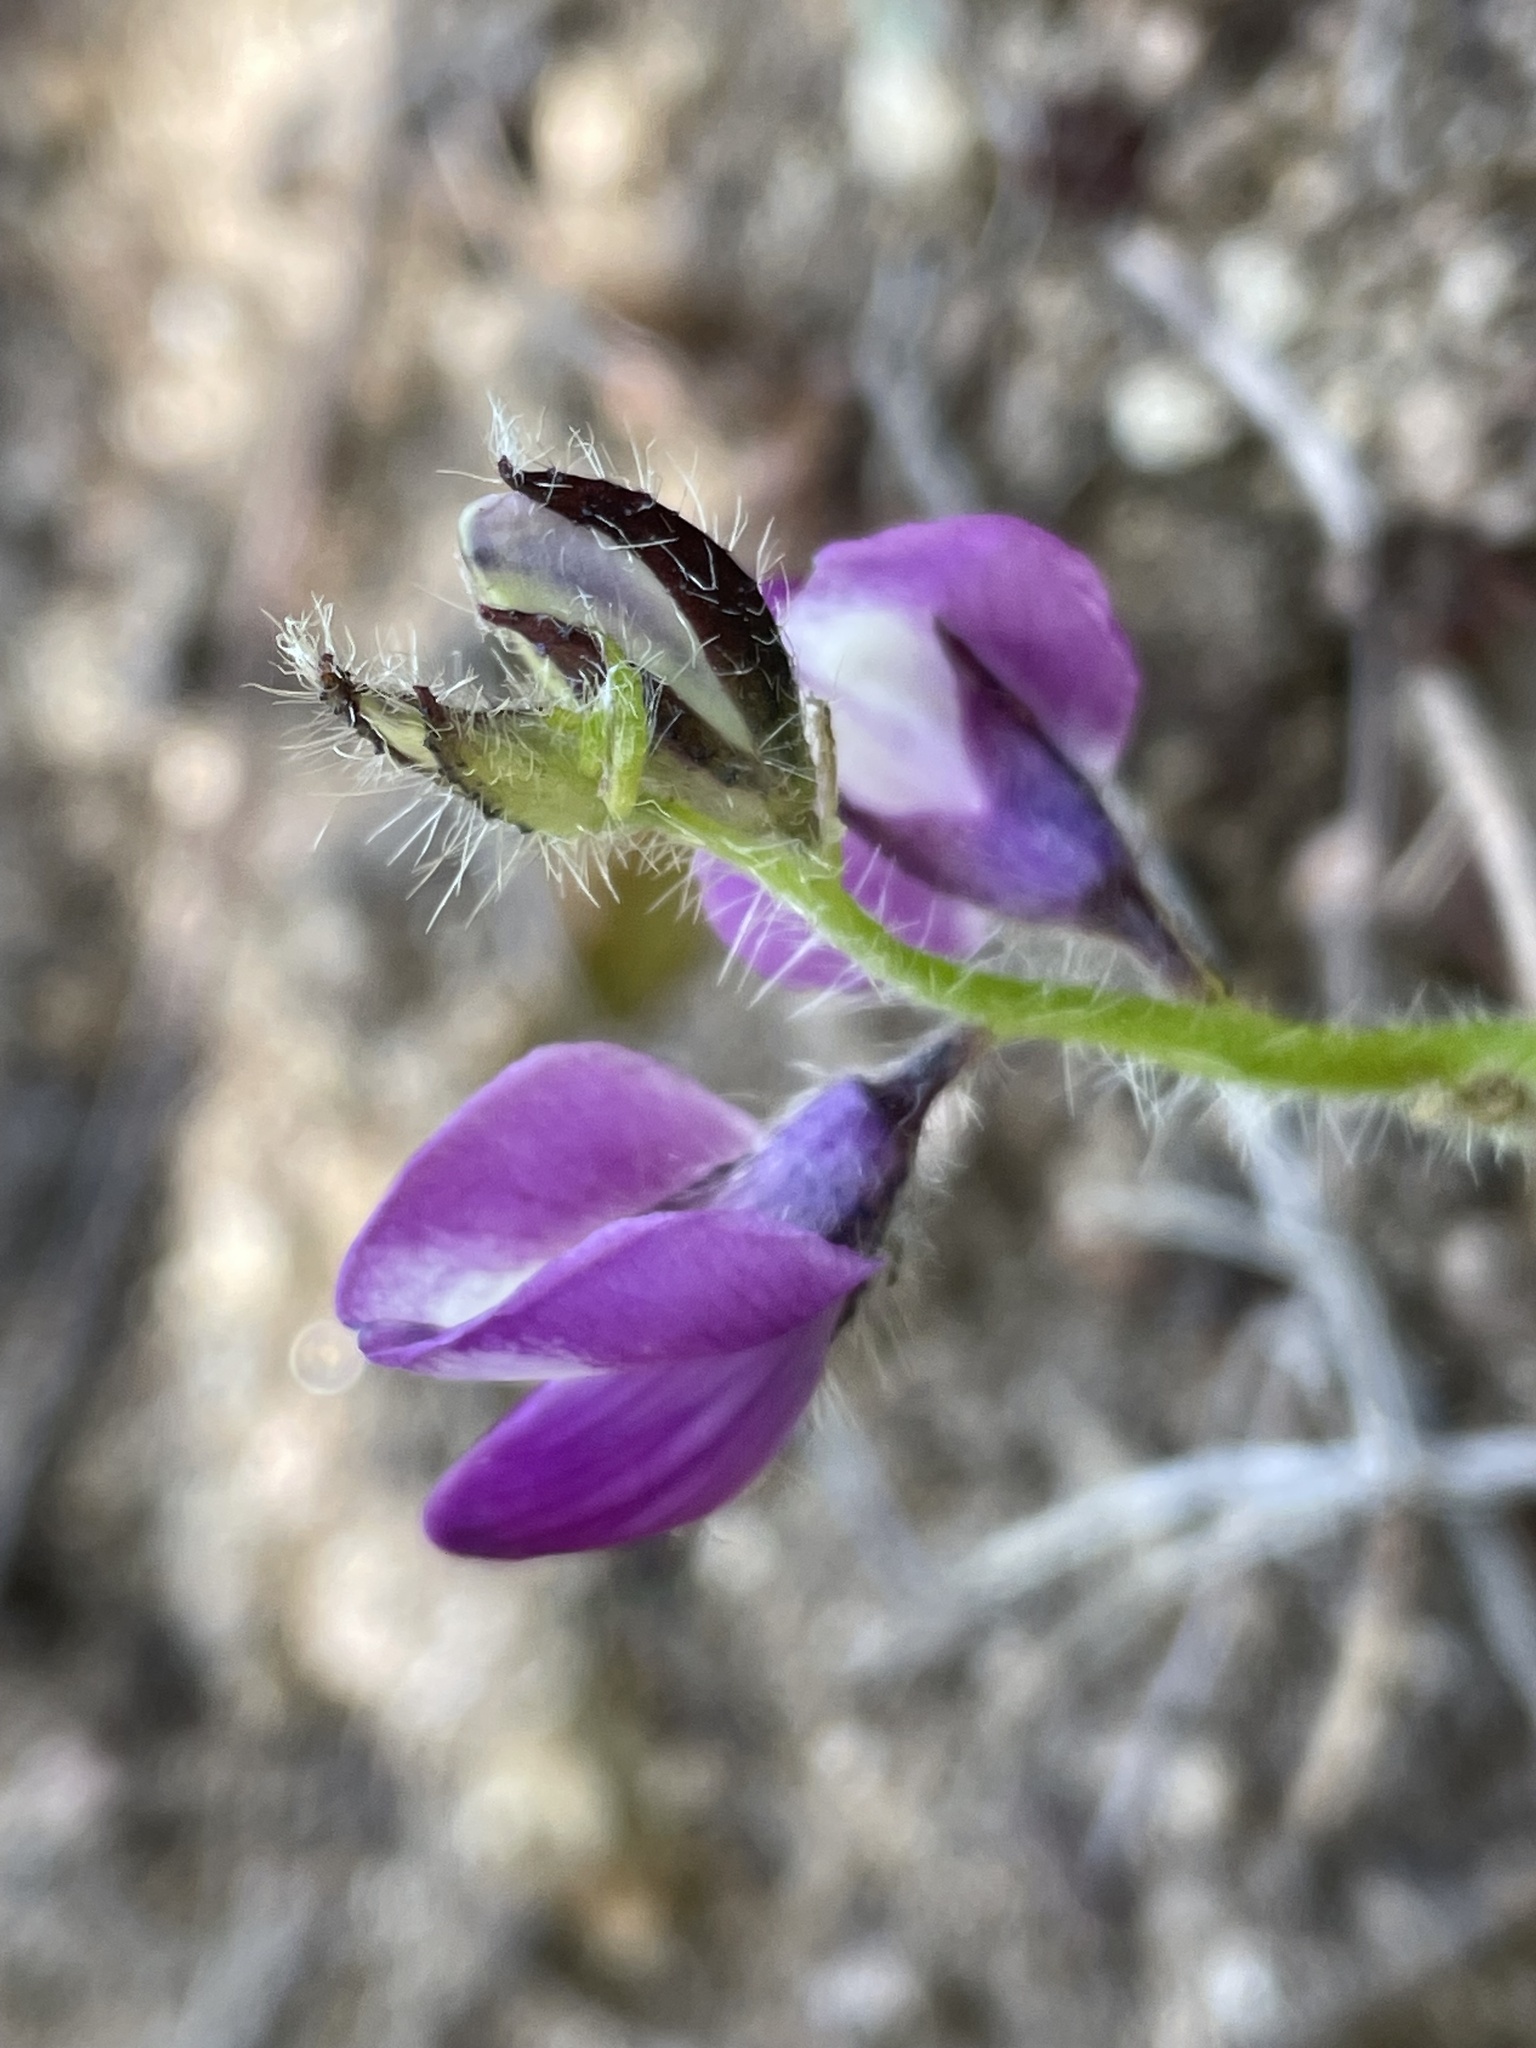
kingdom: Plantae
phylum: Tracheophyta
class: Magnoliopsida
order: Fabales
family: Fabaceae
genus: Lupinus
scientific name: Lupinus hirsutissimus
